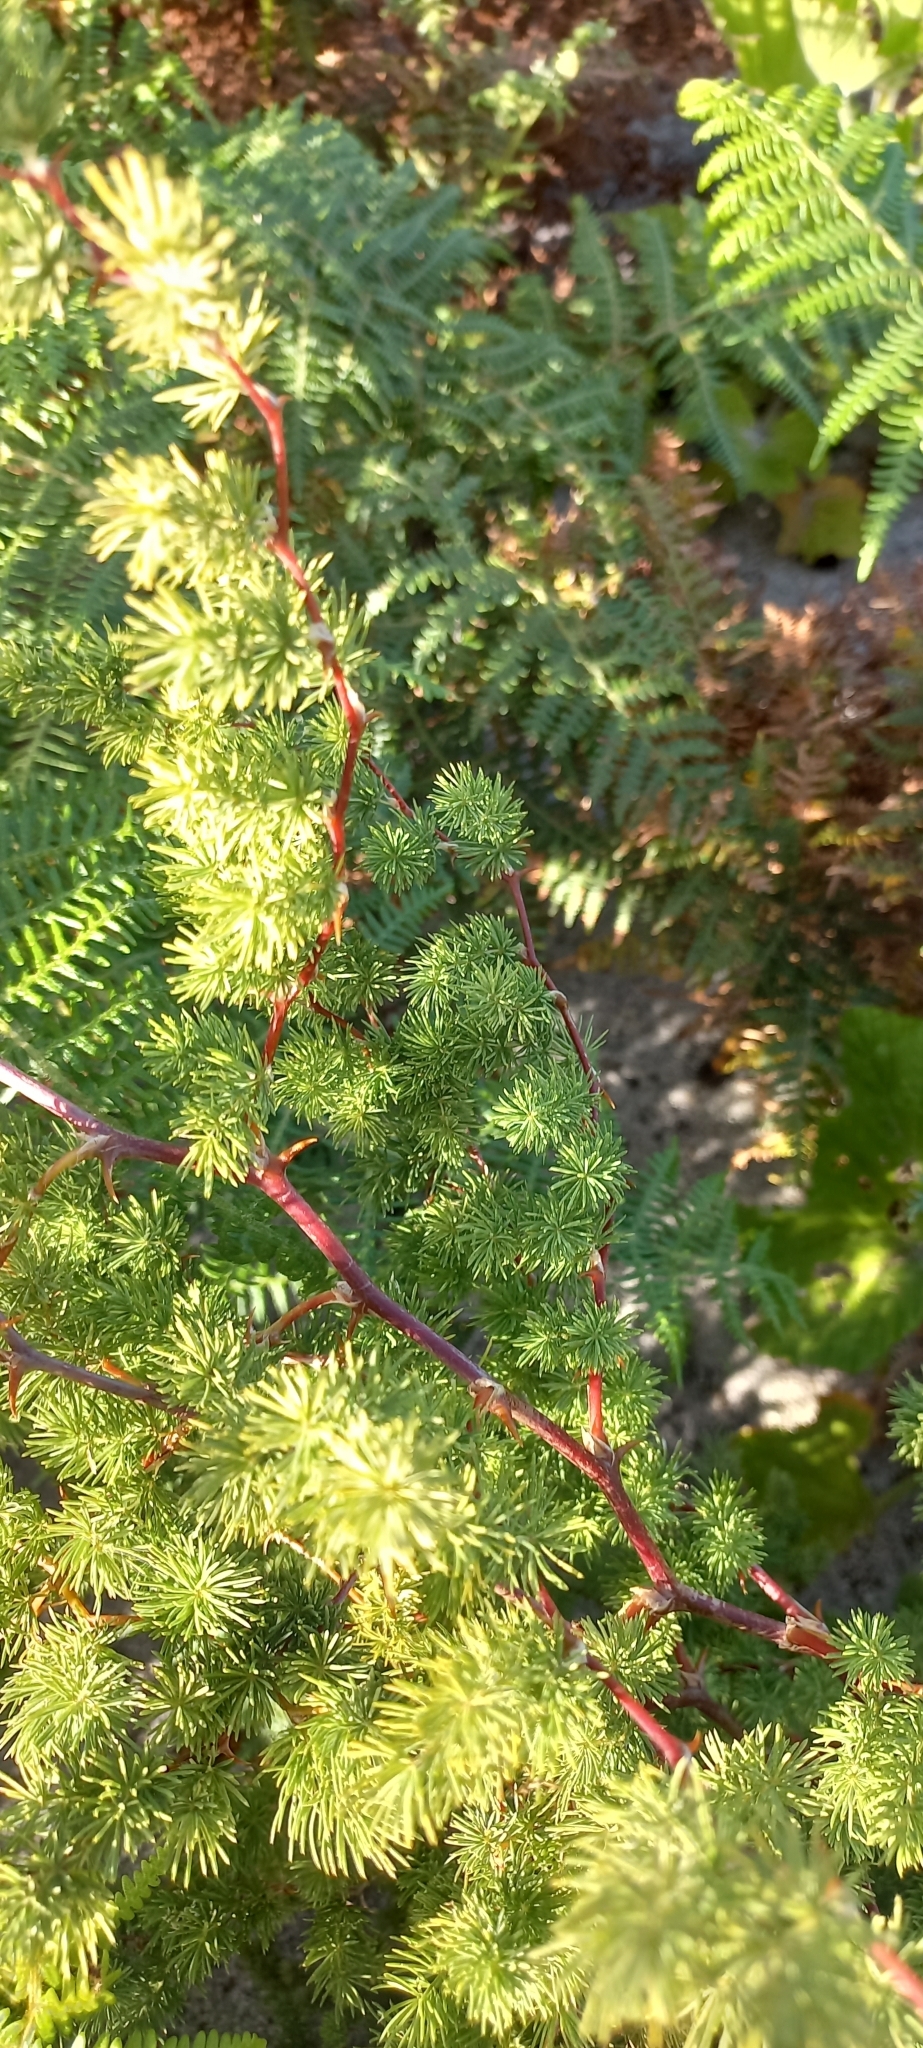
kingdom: Plantae
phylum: Tracheophyta
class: Liliopsida
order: Asparagales
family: Asparagaceae
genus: Asparagus
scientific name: Asparagus rubicundus
